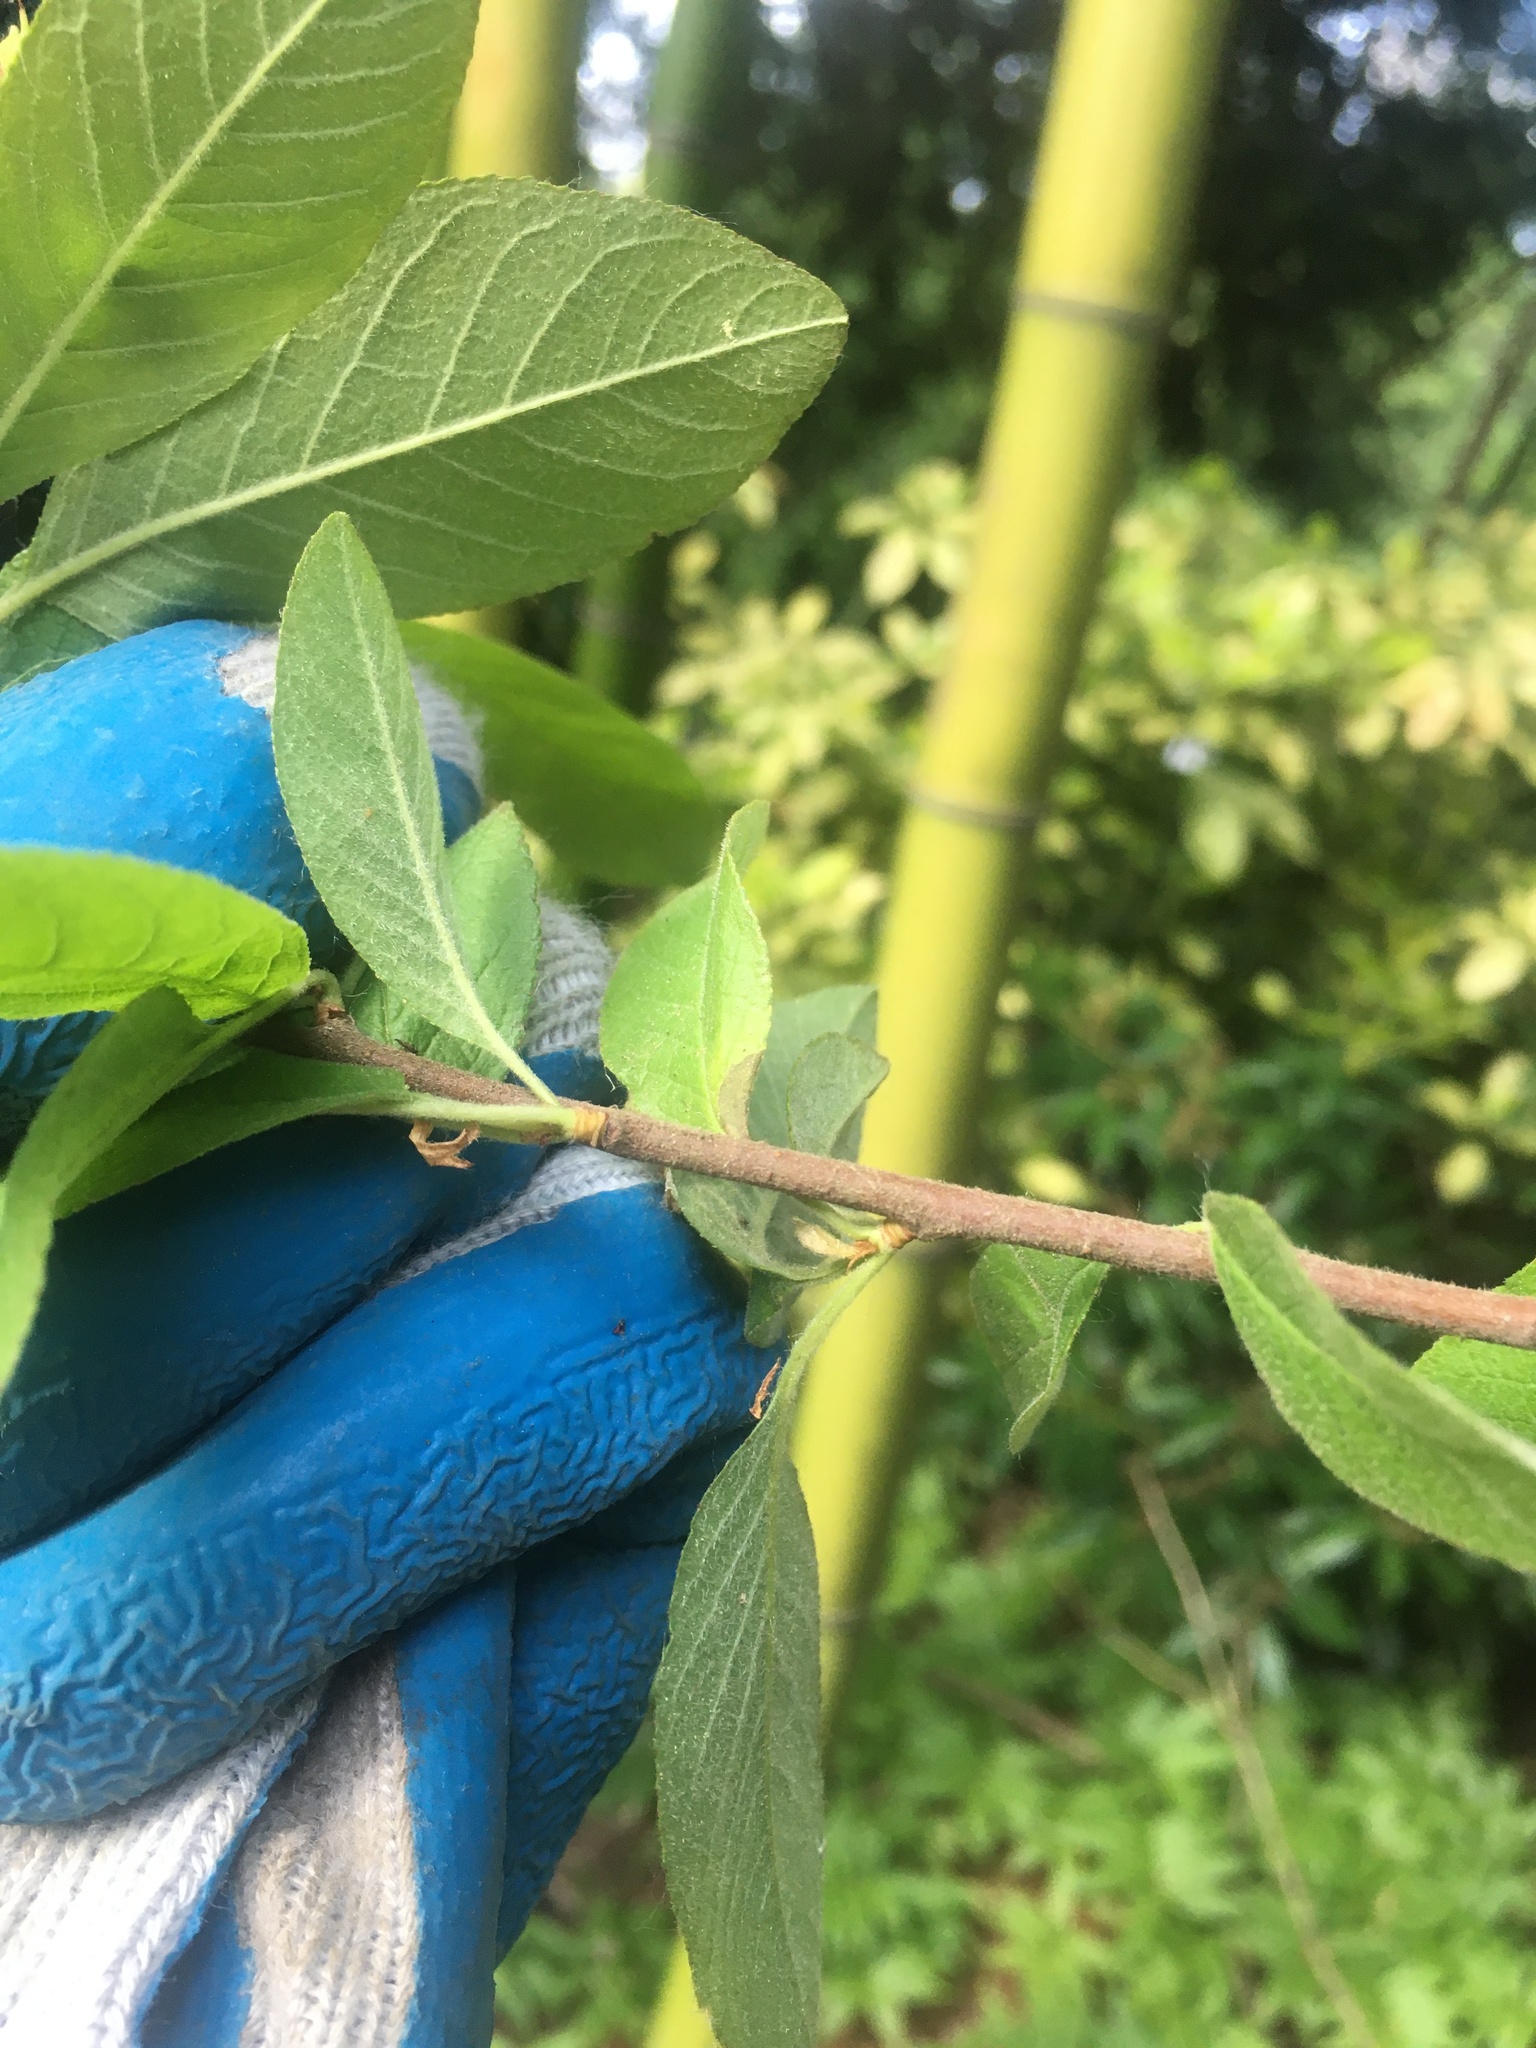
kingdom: Plantae
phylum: Tracheophyta
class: Magnoliopsida
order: Rosales
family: Rosaceae
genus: Prunus
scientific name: Prunus emarginata
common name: Bitter cherry
